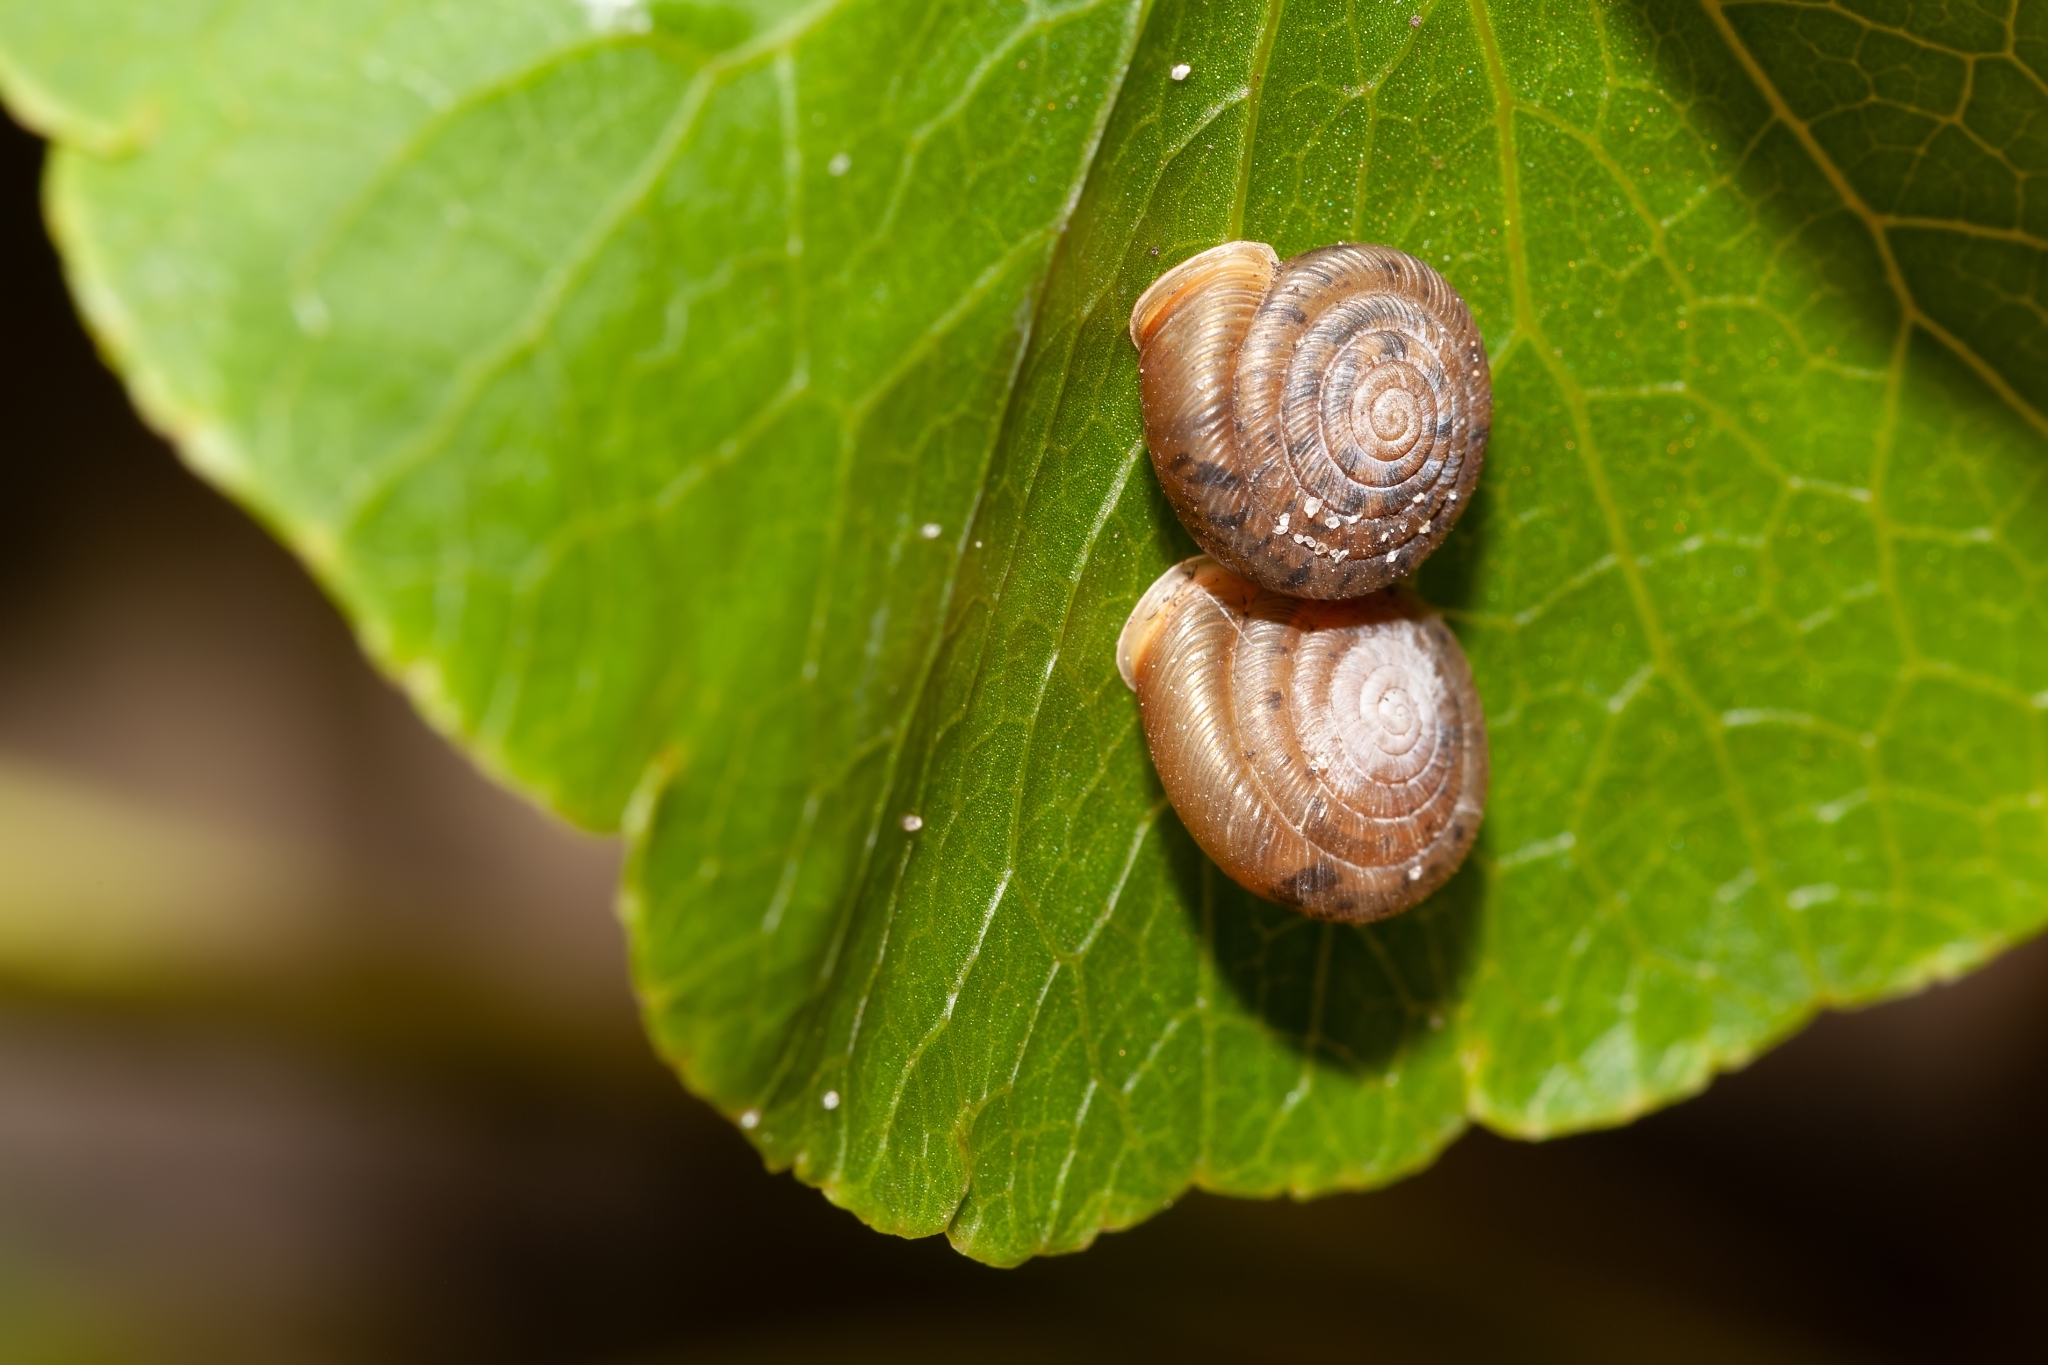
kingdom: Animalia
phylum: Mollusca
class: Gastropoda
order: Stylommatophora
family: Polygyridae
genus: Polygyra
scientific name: Polygyra cereolus
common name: Southern flatcone snail
